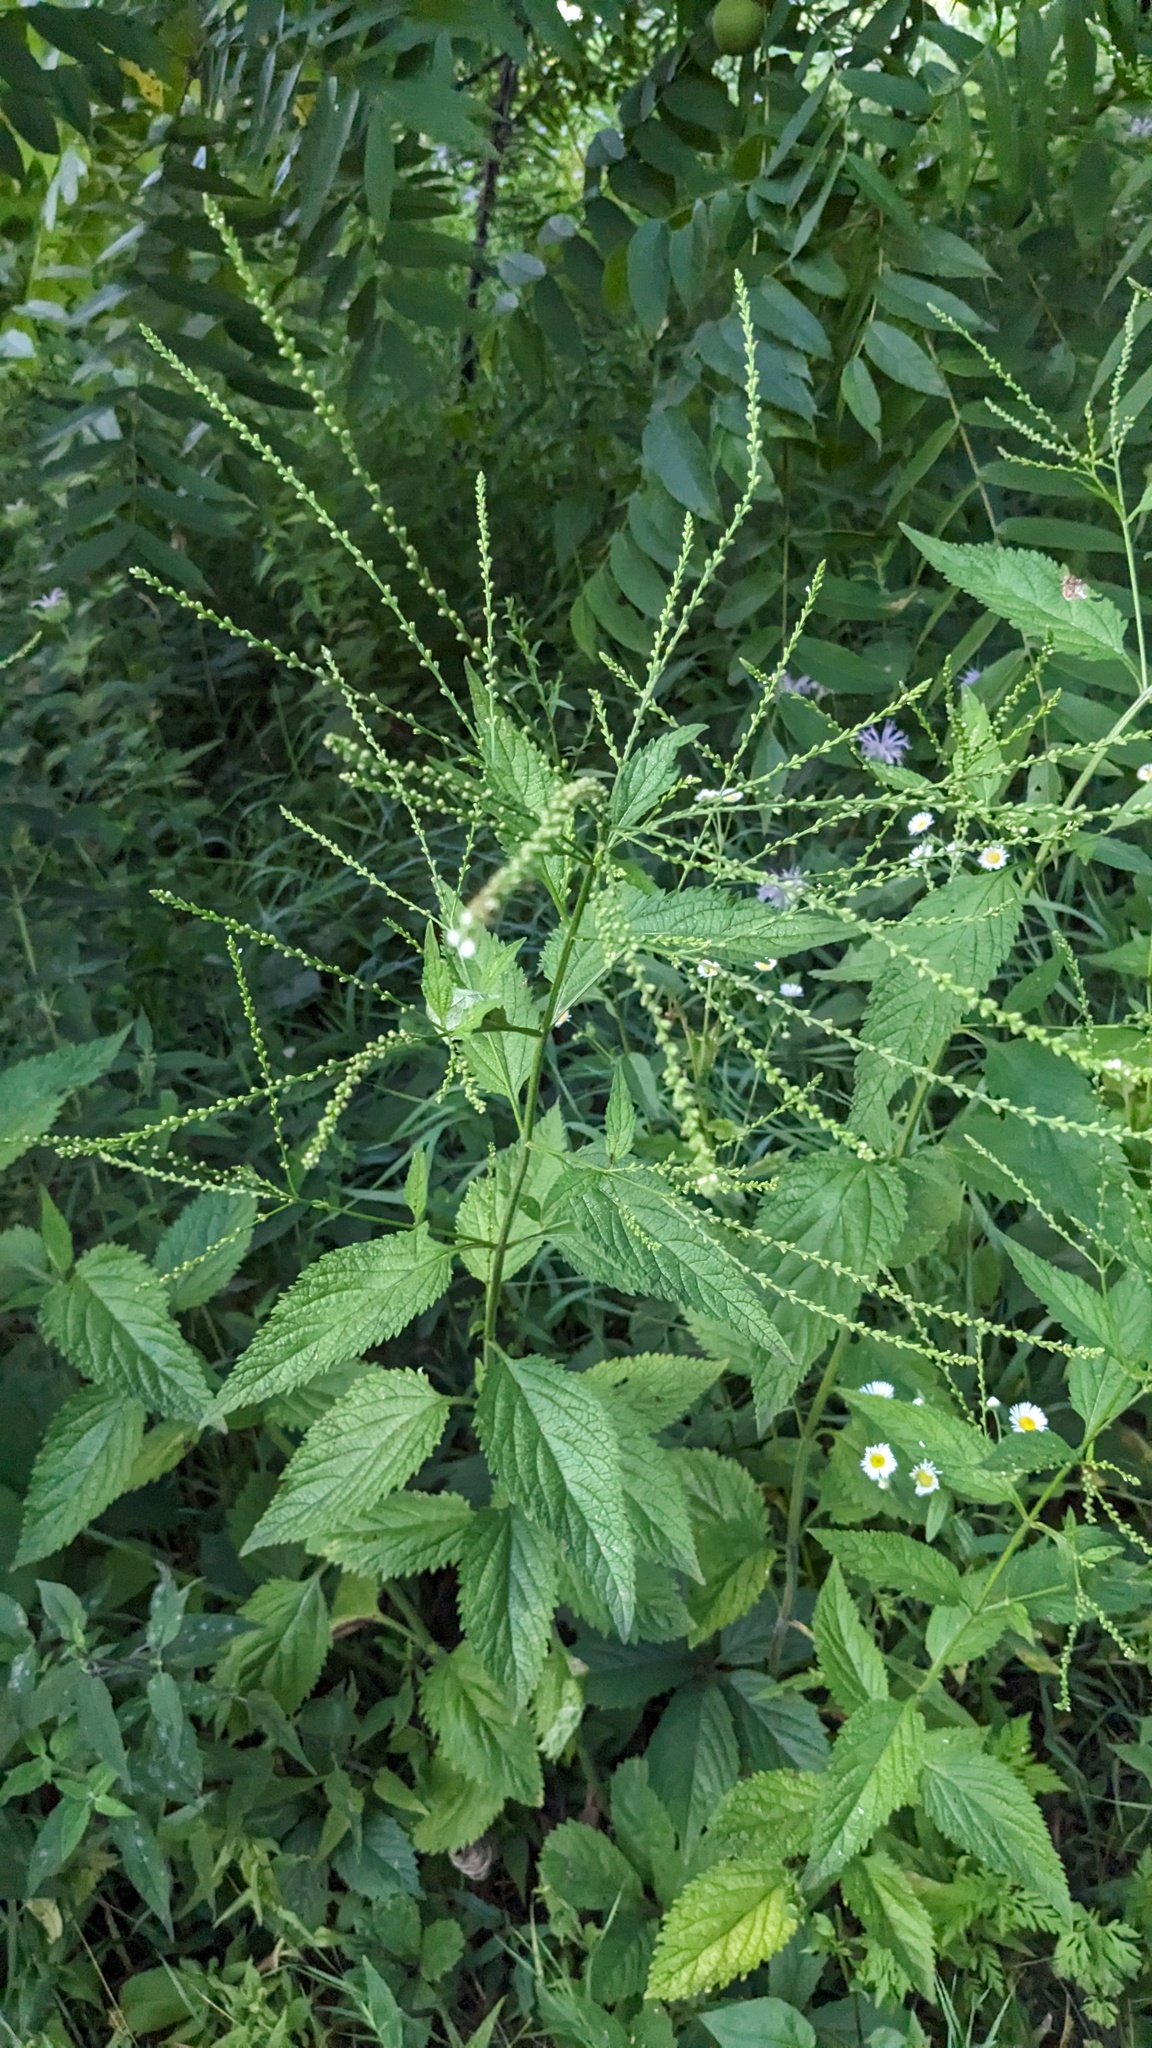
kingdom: Plantae
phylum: Tracheophyta
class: Magnoliopsida
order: Lamiales
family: Verbenaceae
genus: Verbena
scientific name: Verbena urticifolia
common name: Nettle-leaved vervain
